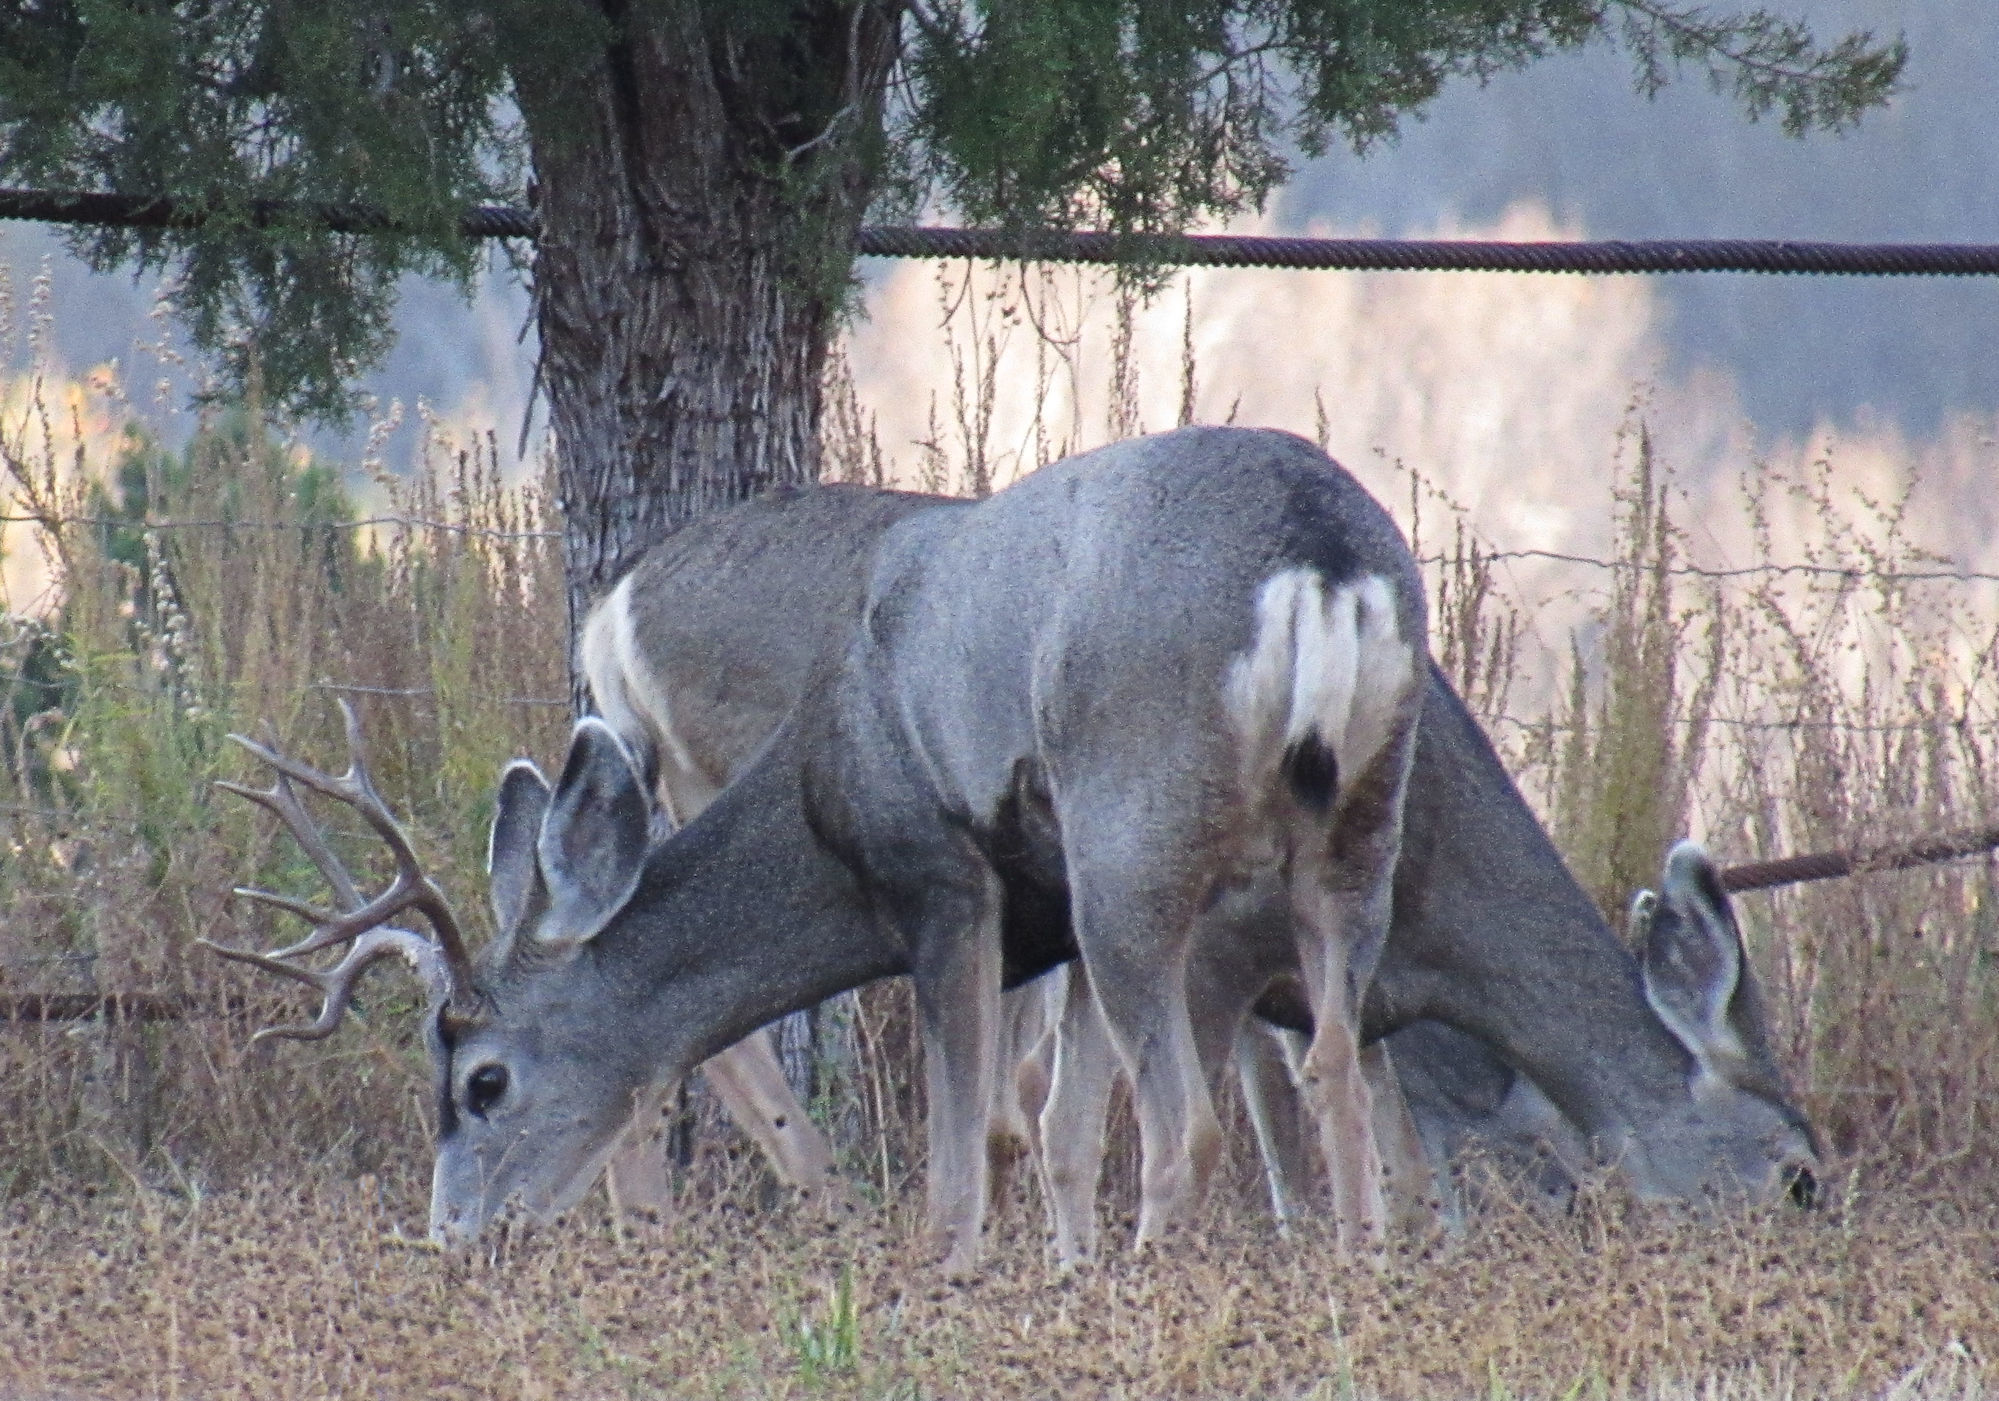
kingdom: Animalia
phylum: Chordata
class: Mammalia
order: Artiodactyla
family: Cervidae
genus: Odocoileus
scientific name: Odocoileus hemionus
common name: Mule deer
